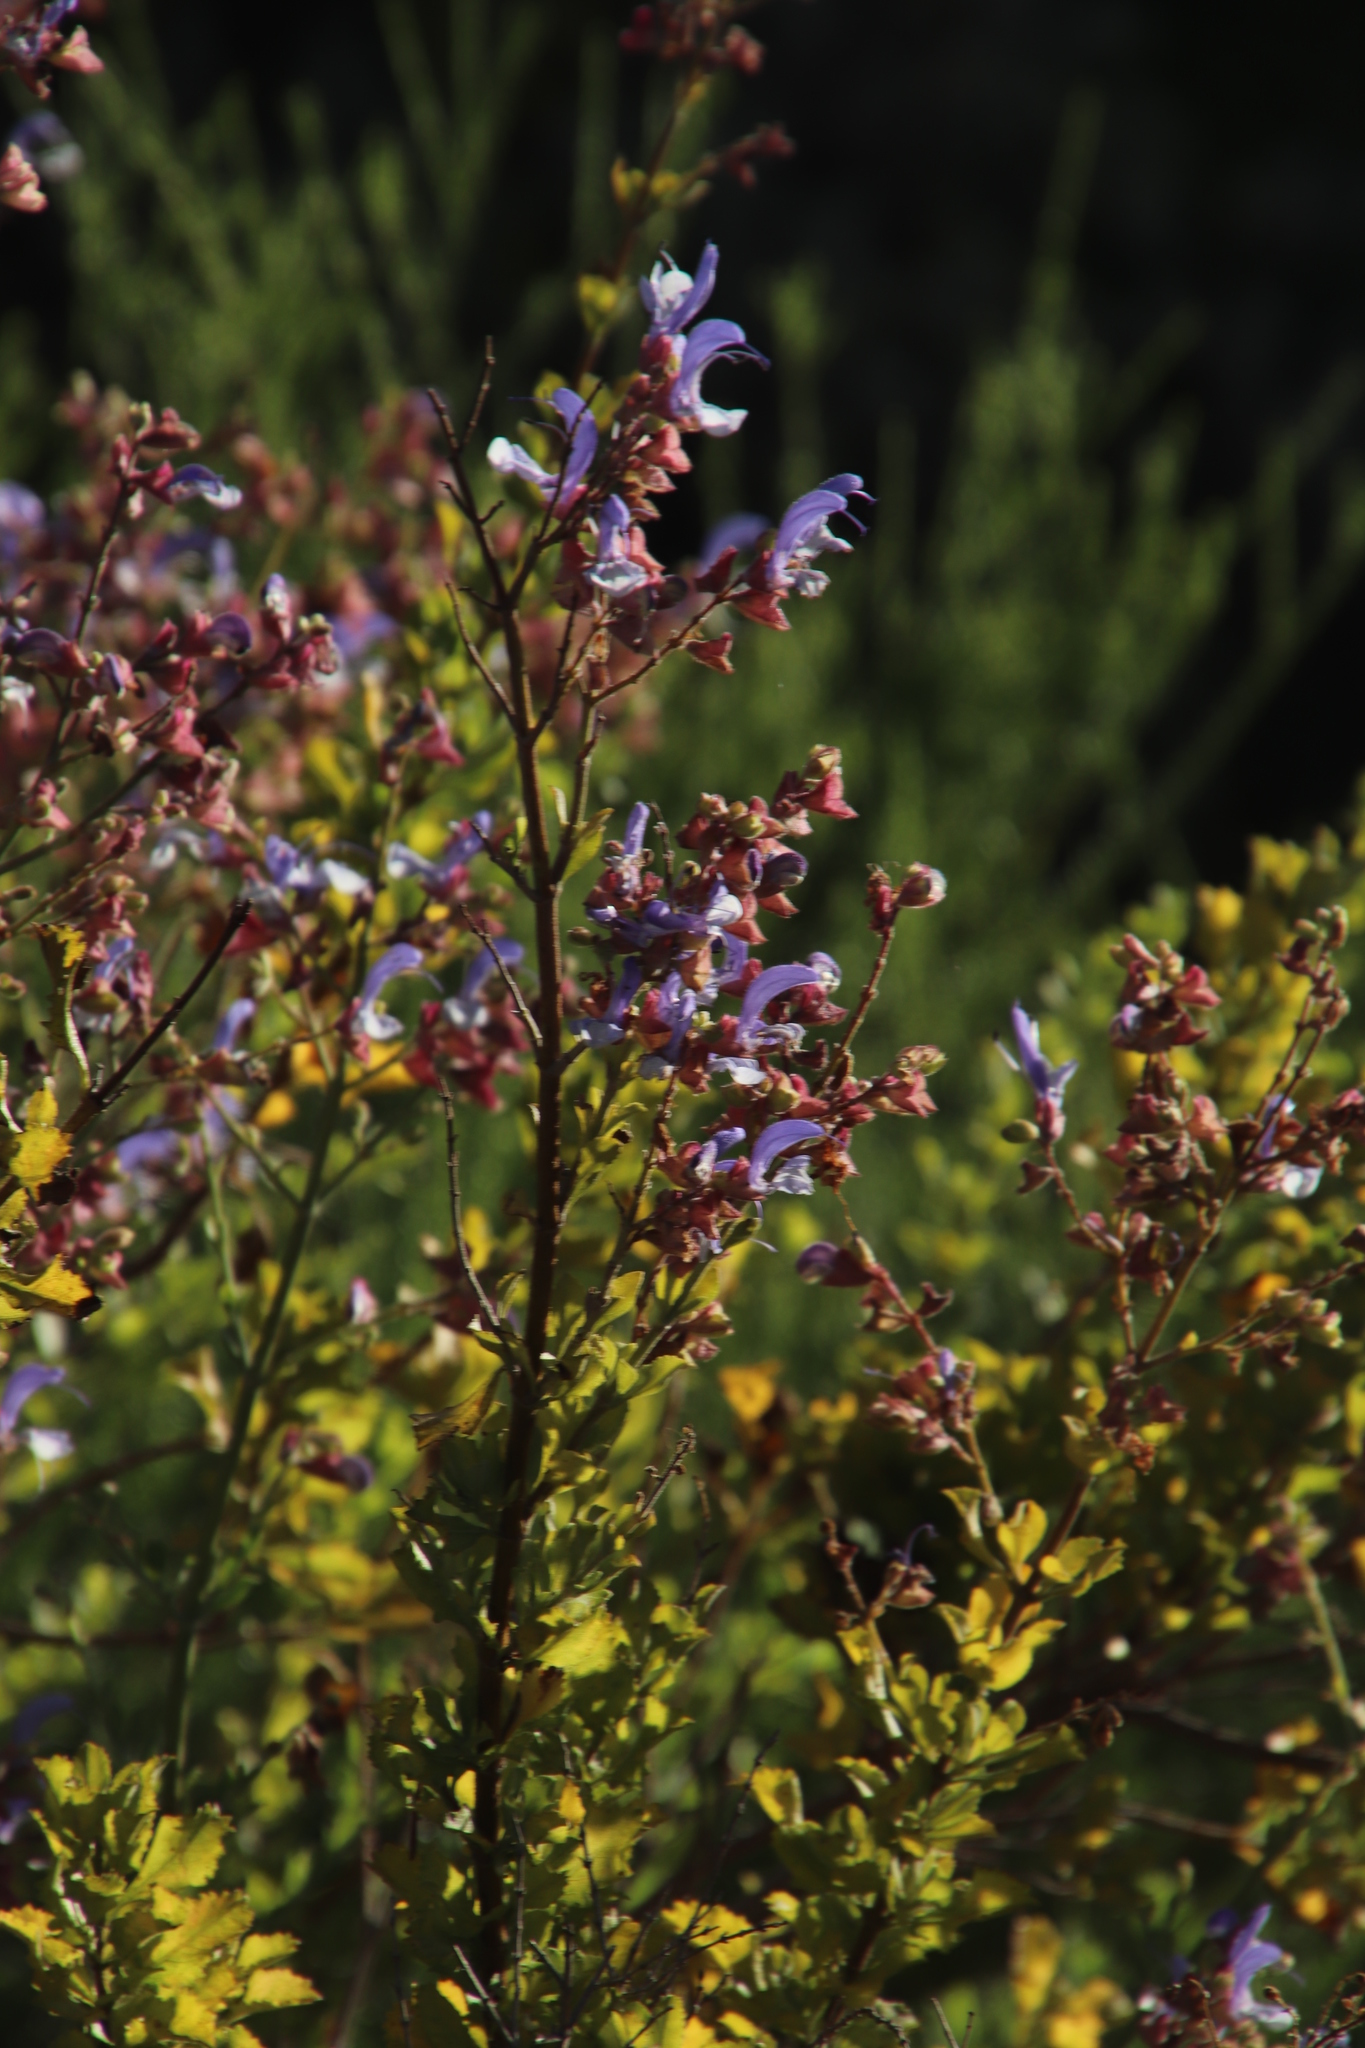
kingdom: Plantae
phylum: Tracheophyta
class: Magnoliopsida
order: Lamiales
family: Lamiaceae
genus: Salvia
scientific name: Salvia africana
